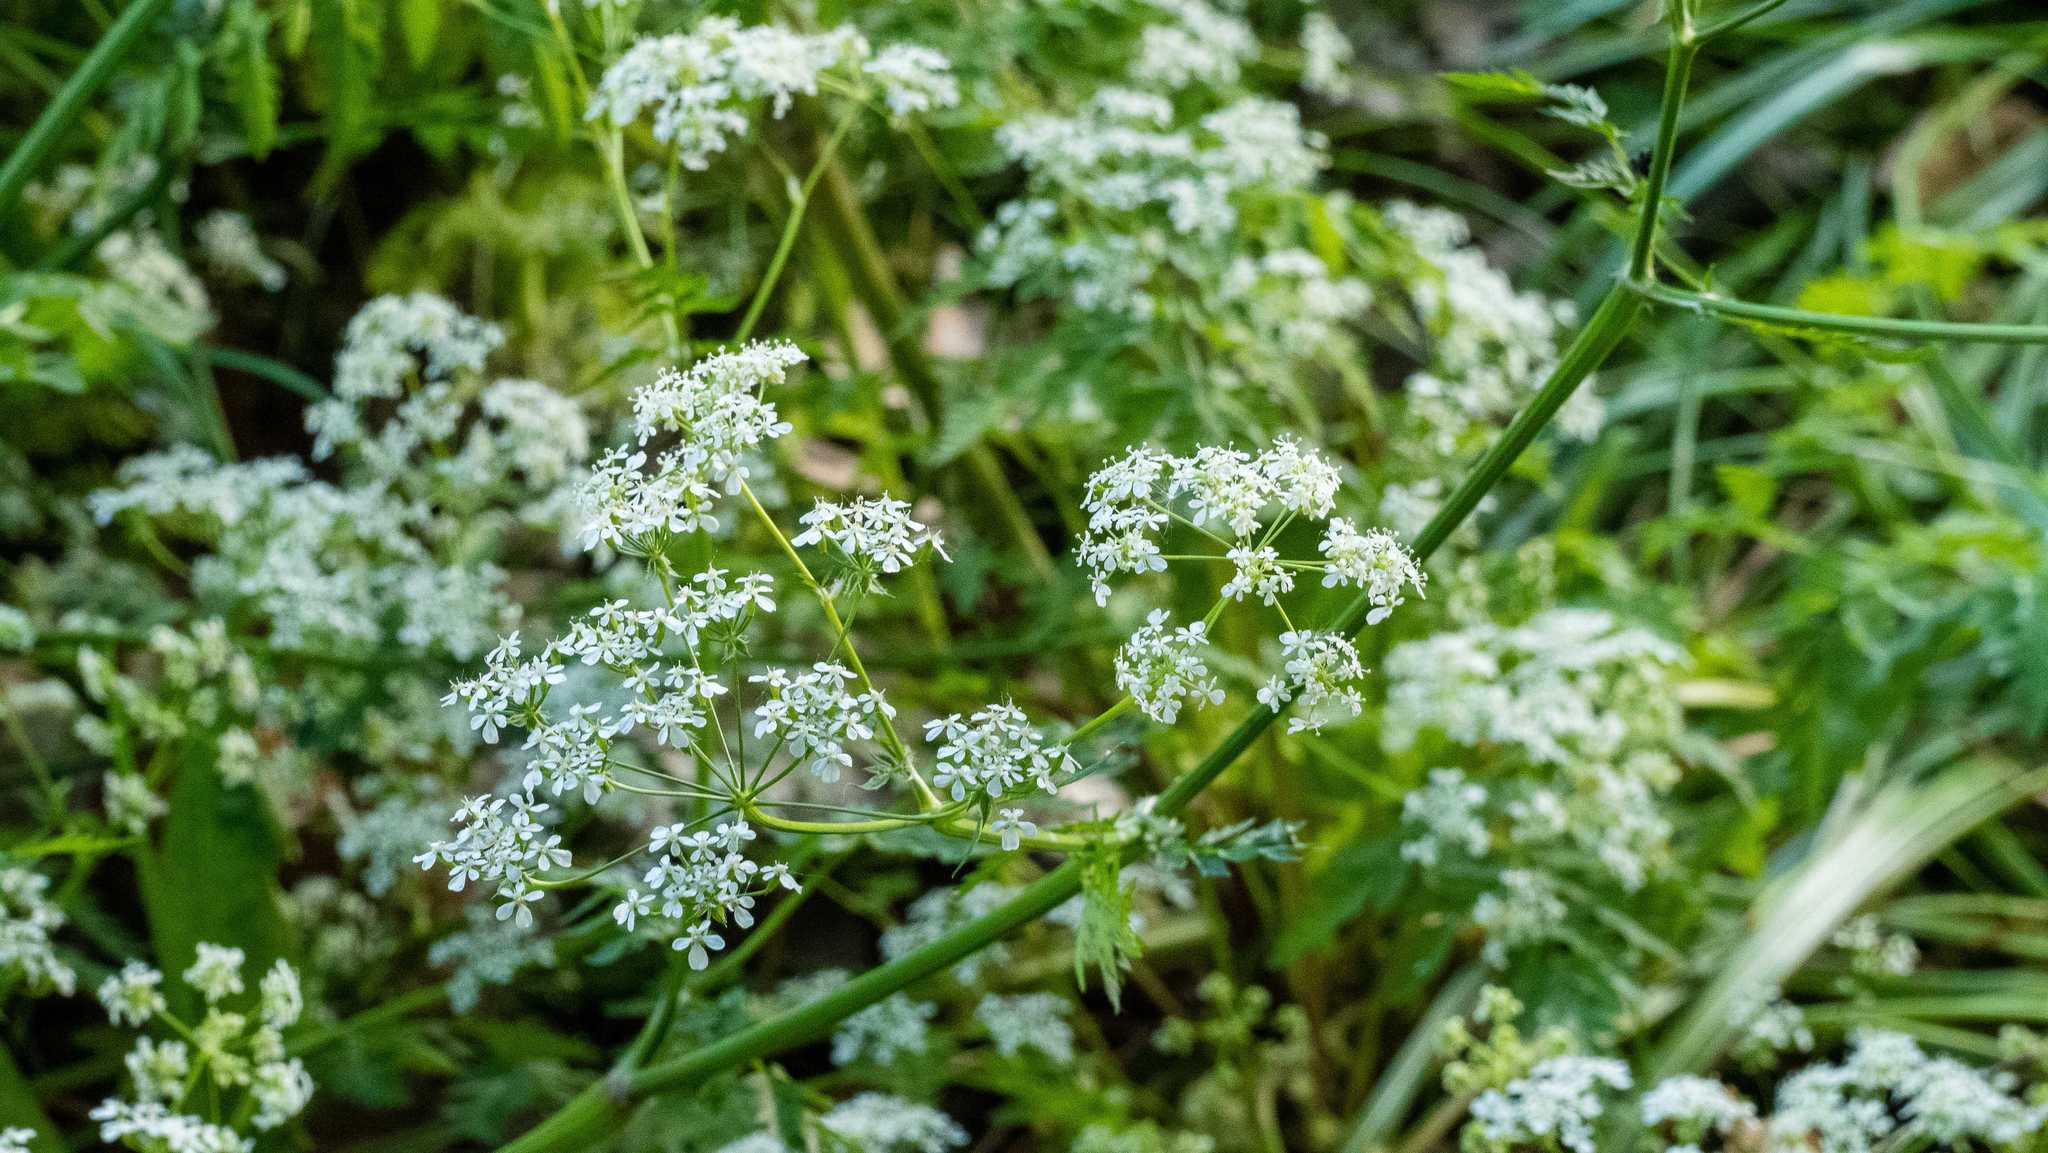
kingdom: Plantae
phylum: Tracheophyta
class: Magnoliopsida
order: Apiales
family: Apiaceae
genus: Anthriscus
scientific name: Anthriscus sylvestris
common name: Cow parsley
